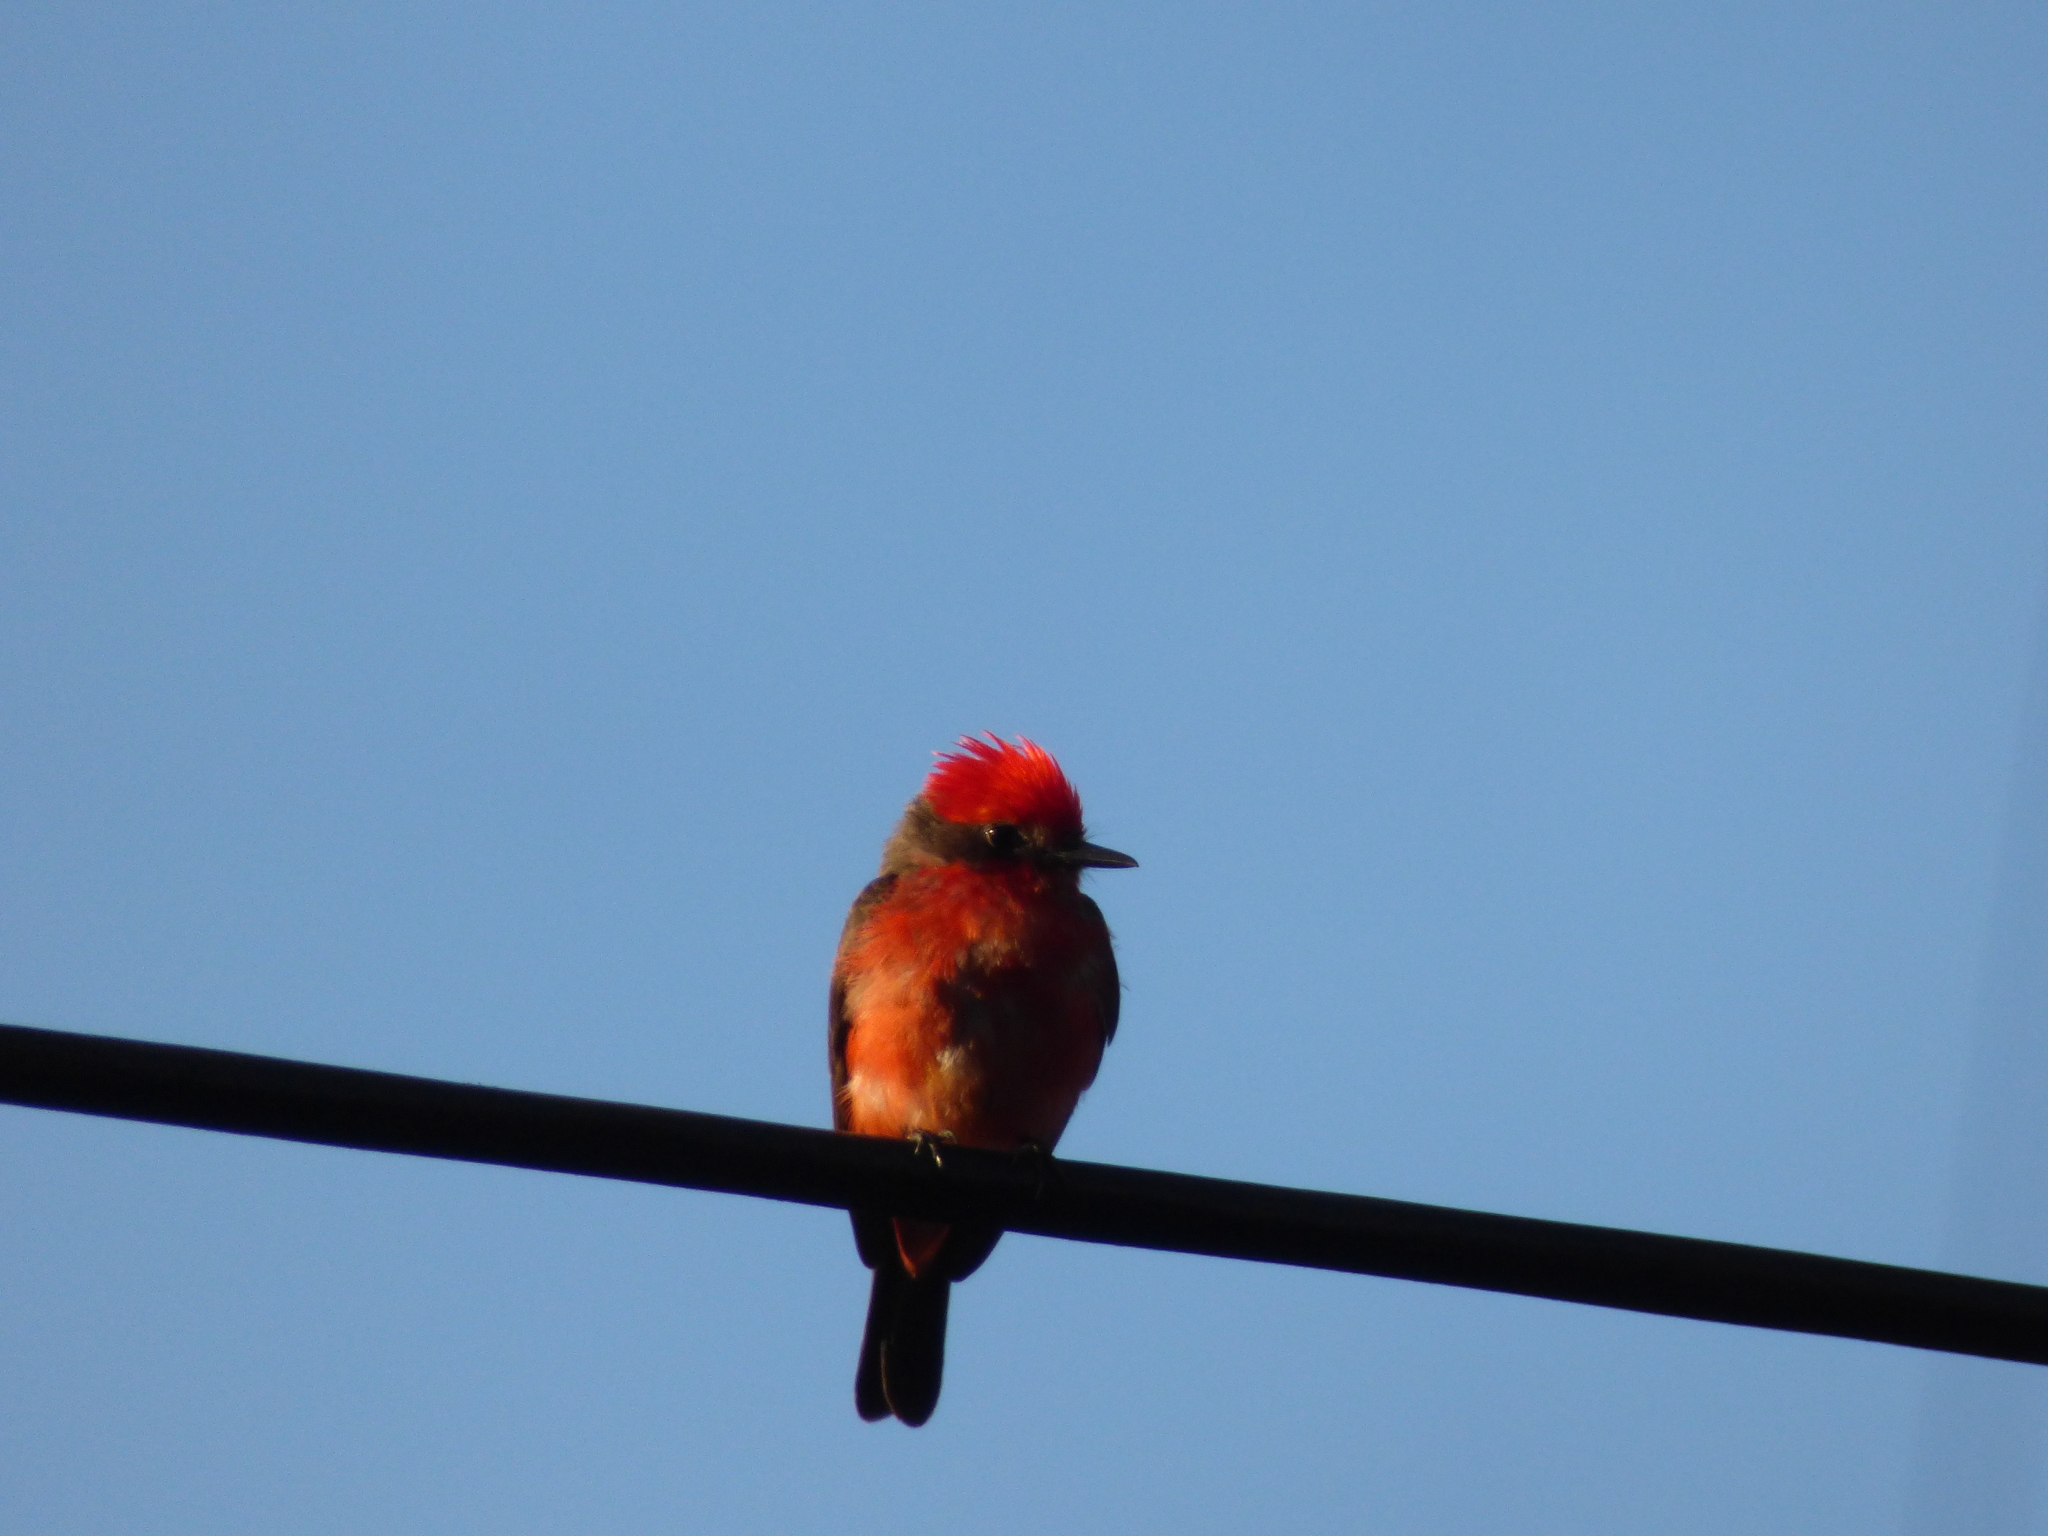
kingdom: Animalia
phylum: Chordata
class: Aves
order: Passeriformes
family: Tyrannidae
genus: Pyrocephalus
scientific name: Pyrocephalus rubinus
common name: Vermilion flycatcher
